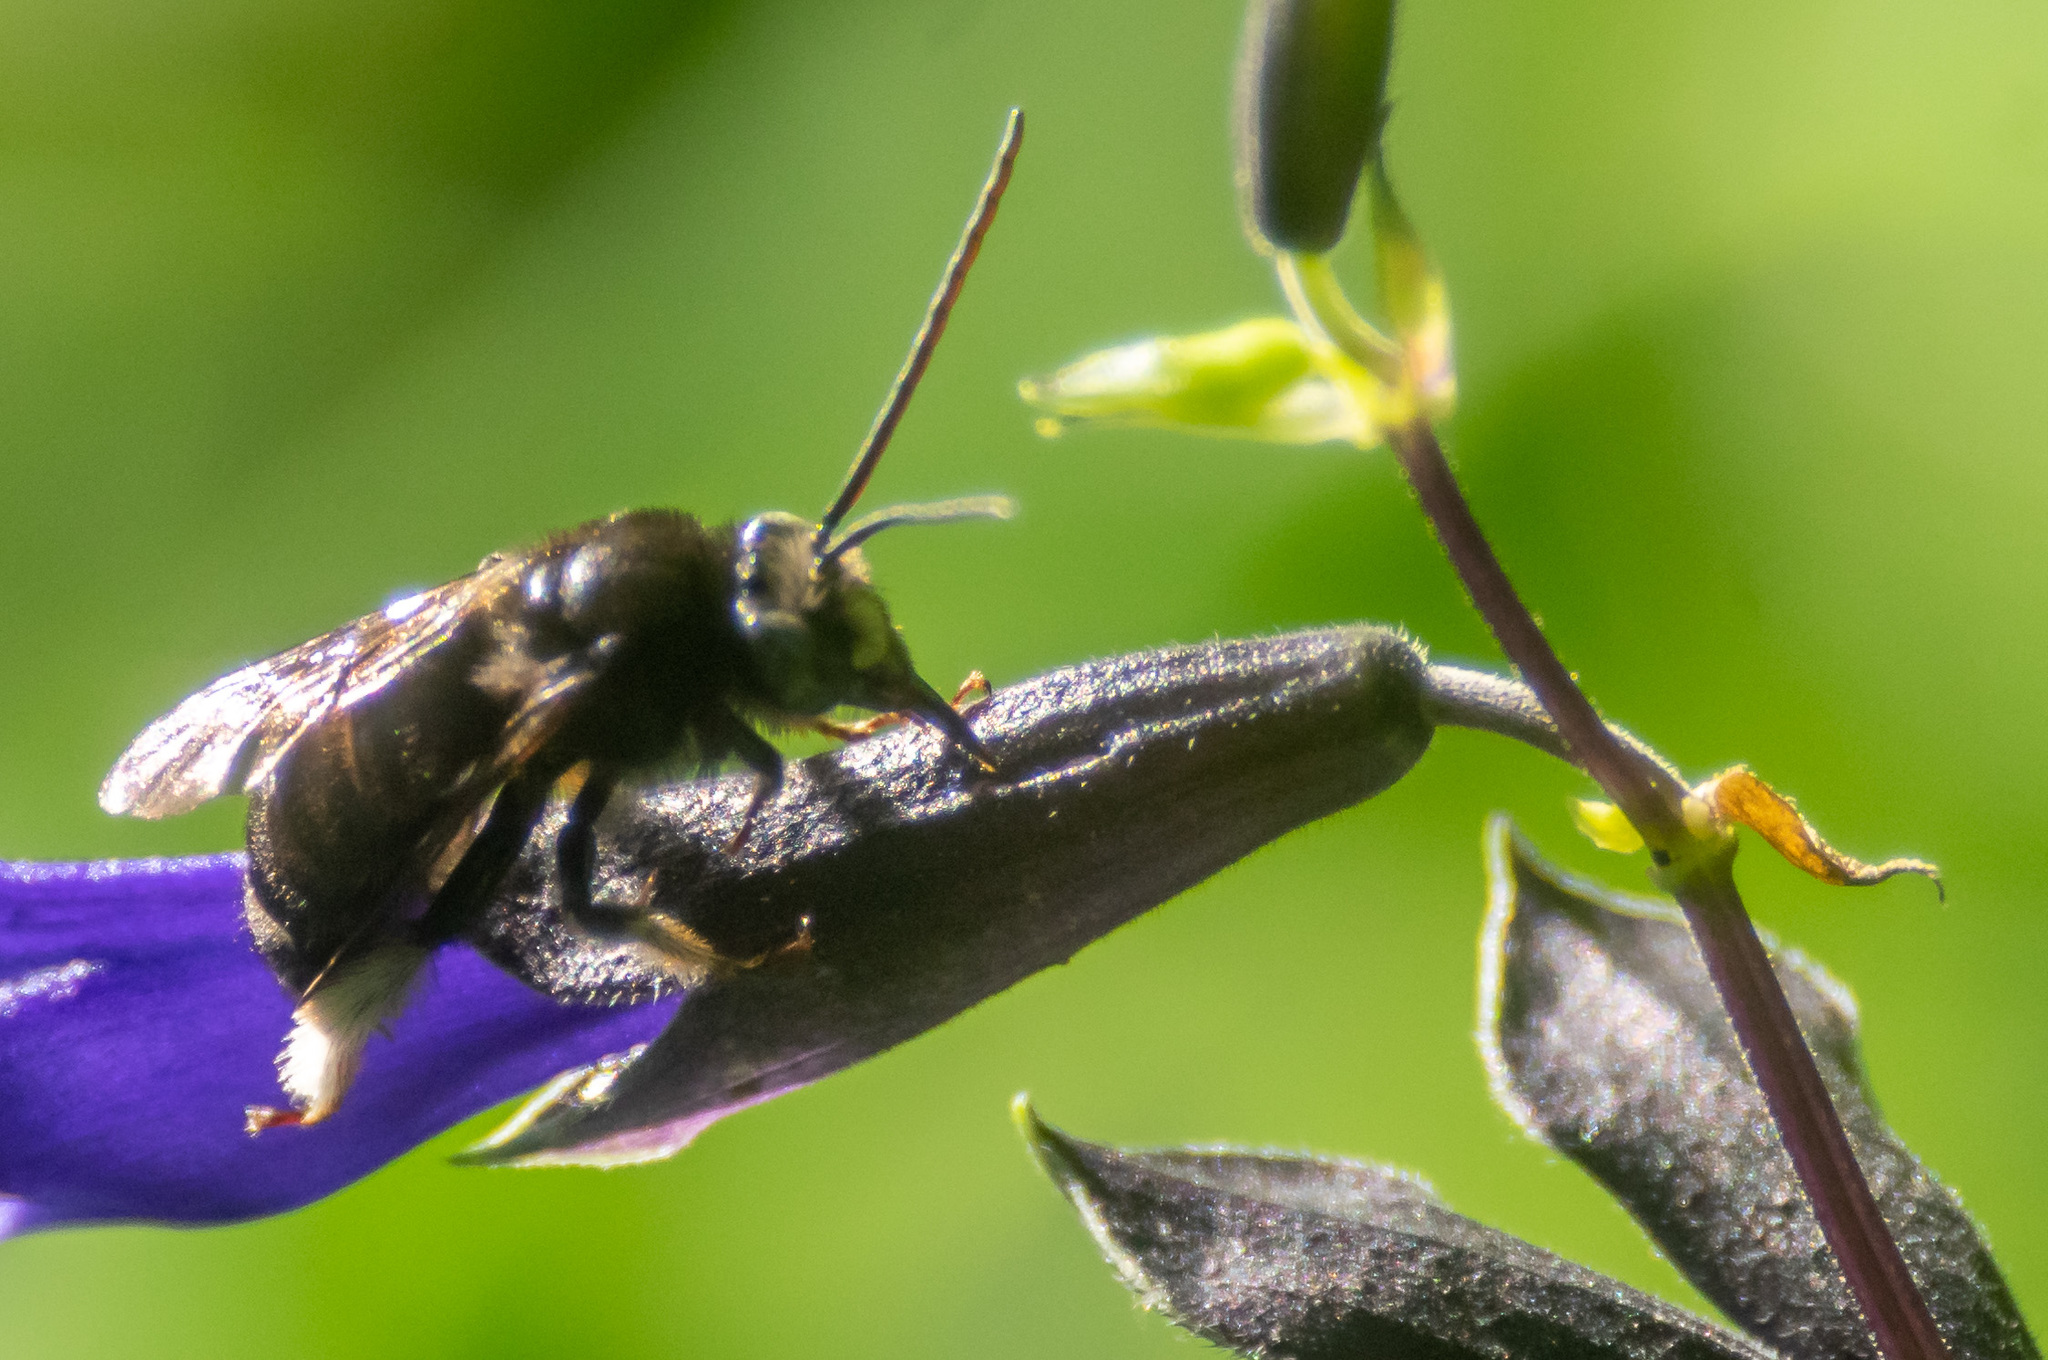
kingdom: Animalia
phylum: Arthropoda
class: Insecta
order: Hymenoptera
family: Apidae
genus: Melissodes
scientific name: Melissodes bimaculatus
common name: Two-spotted long-horned bee
